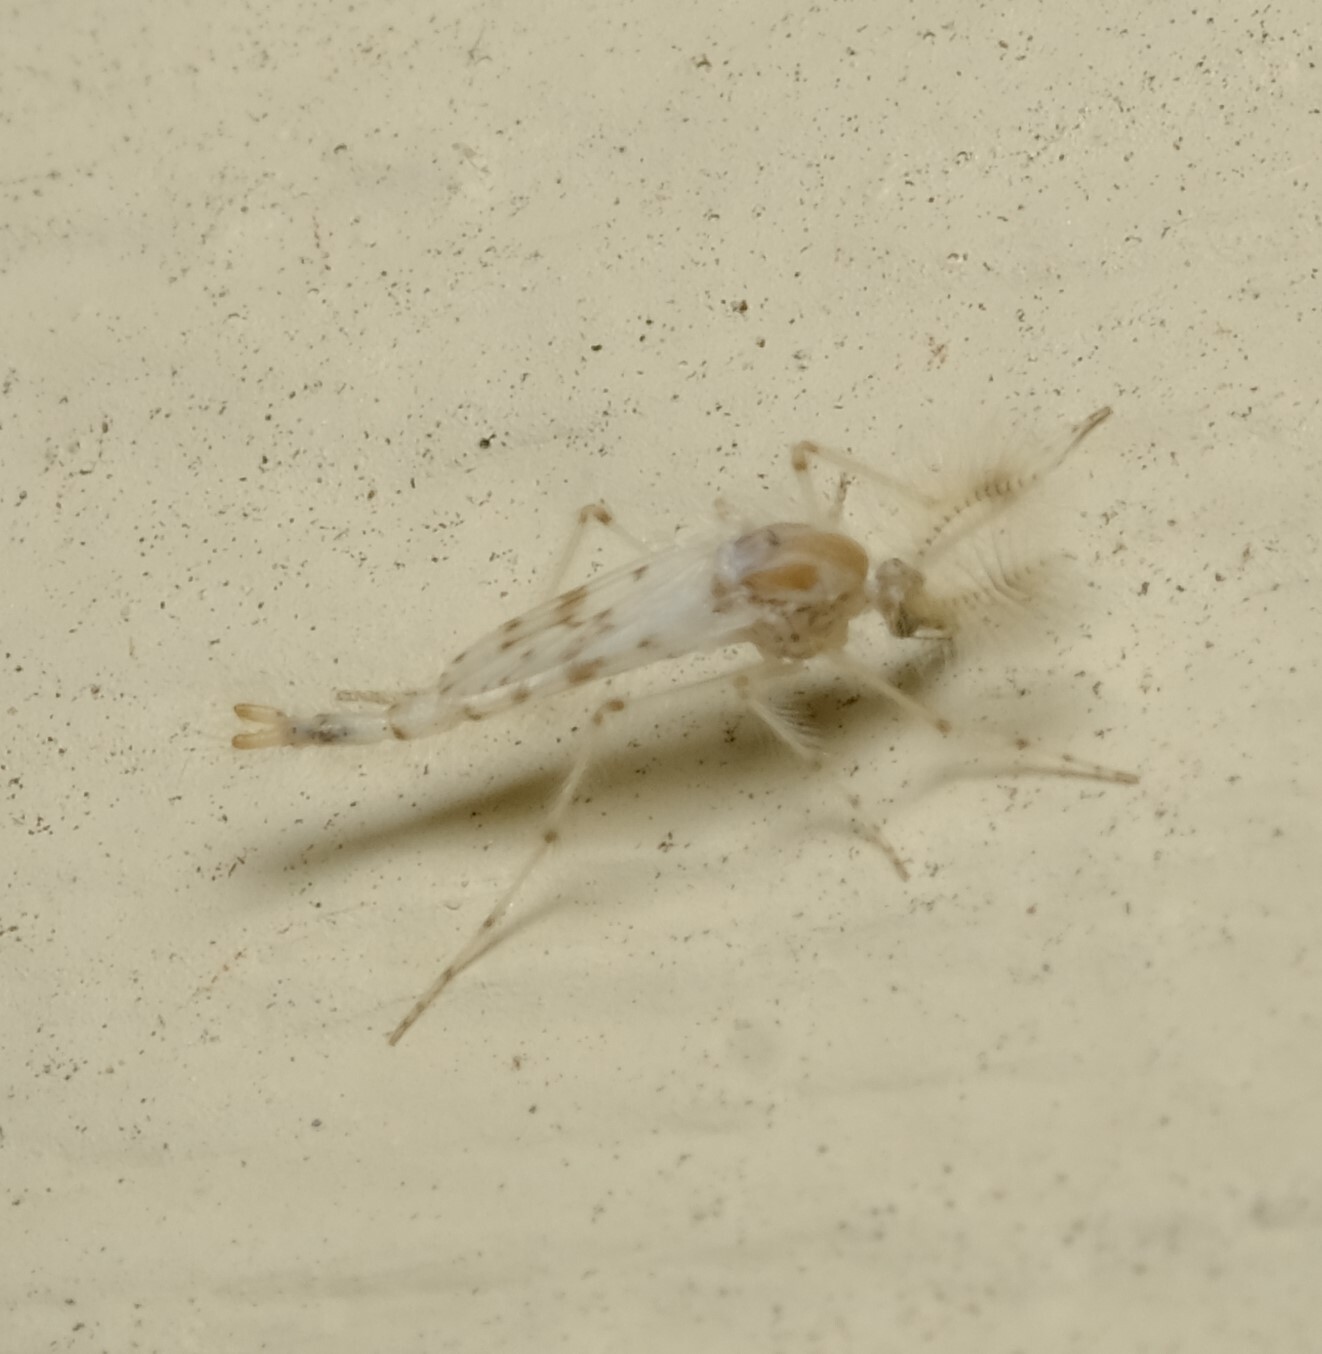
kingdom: Animalia
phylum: Arthropoda
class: Insecta
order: Diptera
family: Chaoboridae
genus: Chaoborus
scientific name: Chaoborus ornatipennis
